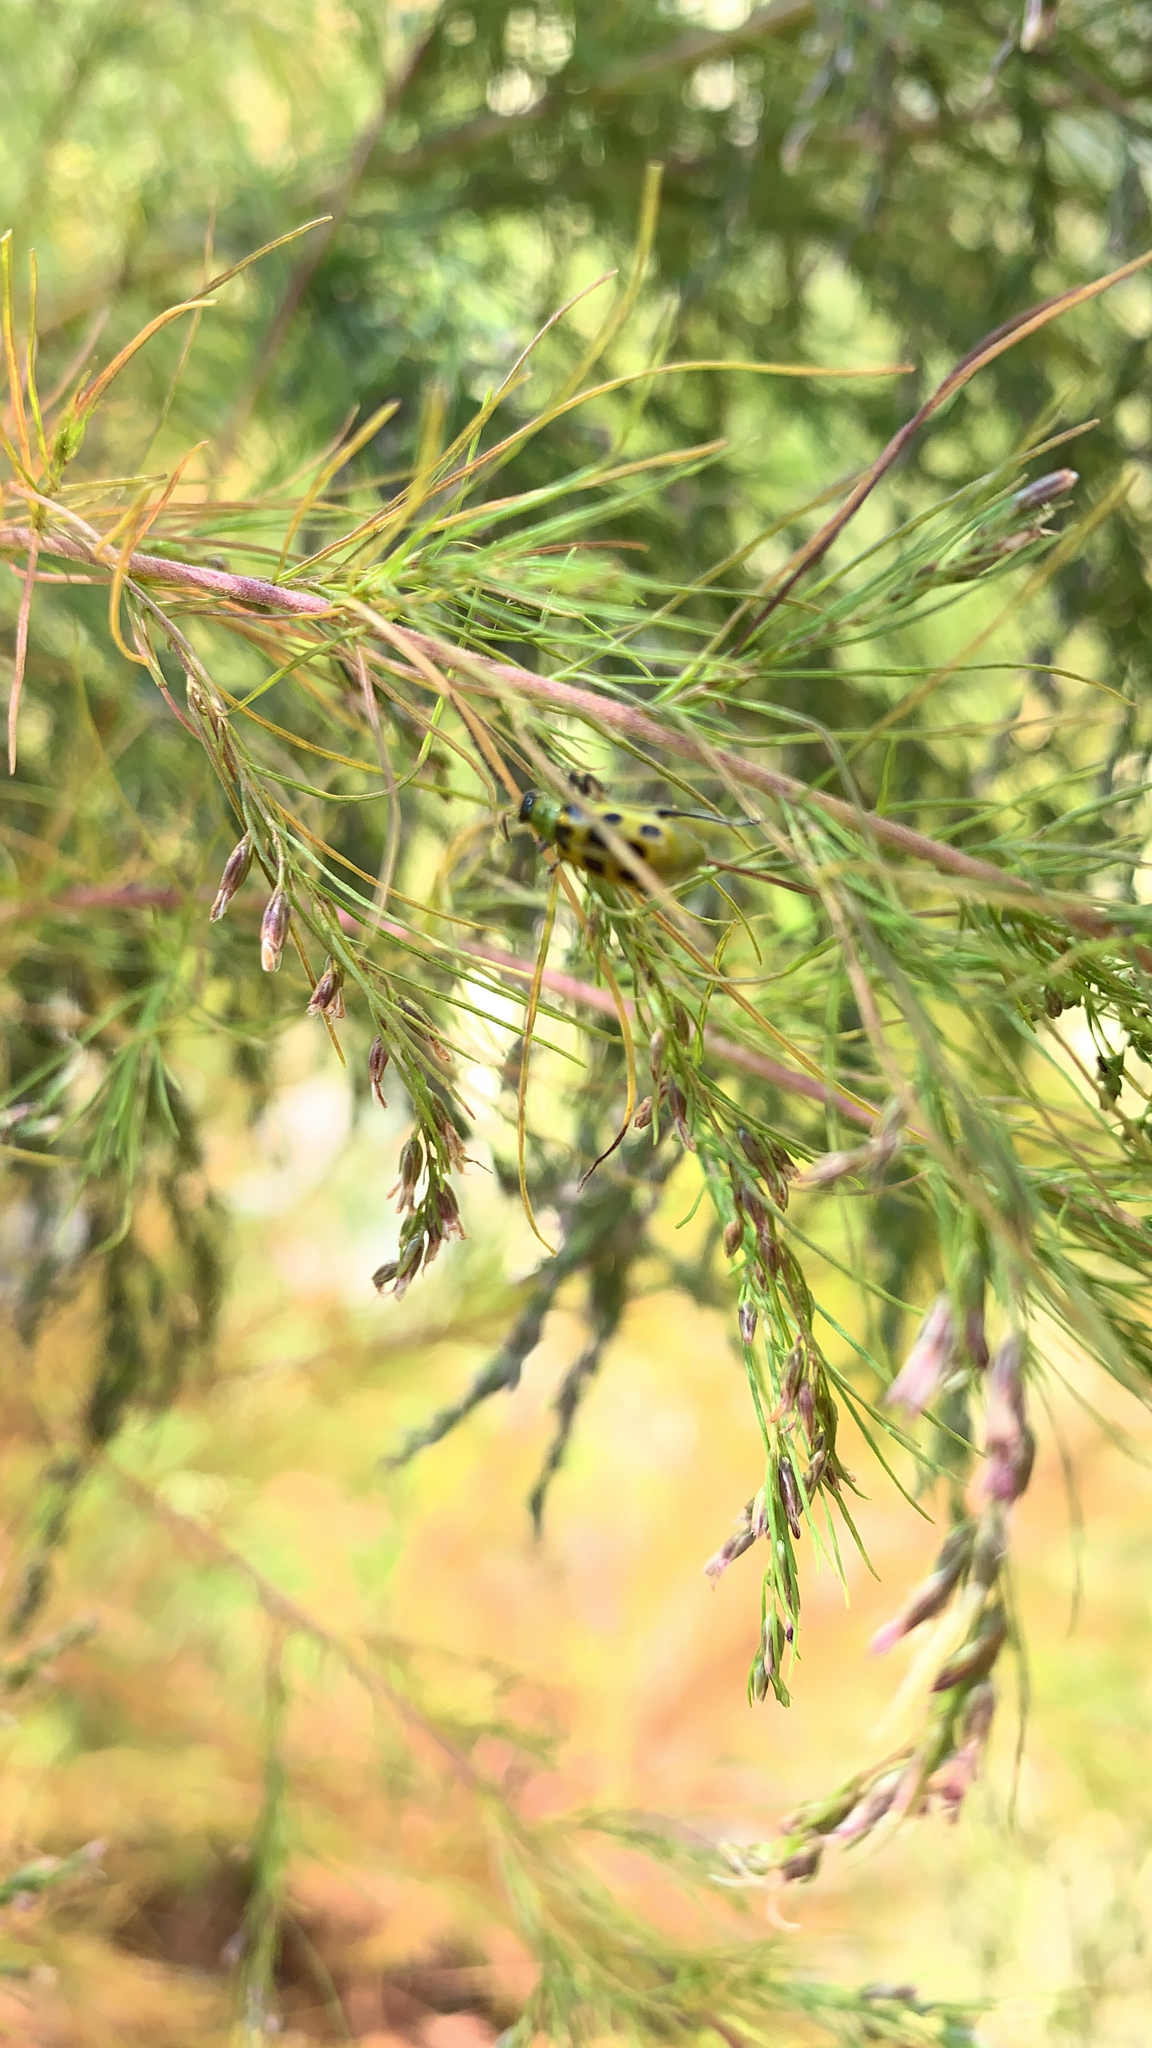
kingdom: Animalia
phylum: Arthropoda
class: Insecta
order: Coleoptera
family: Chrysomelidae
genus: Diabrotica
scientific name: Diabrotica undecimpunctata
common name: Spotted cucumber beetle
